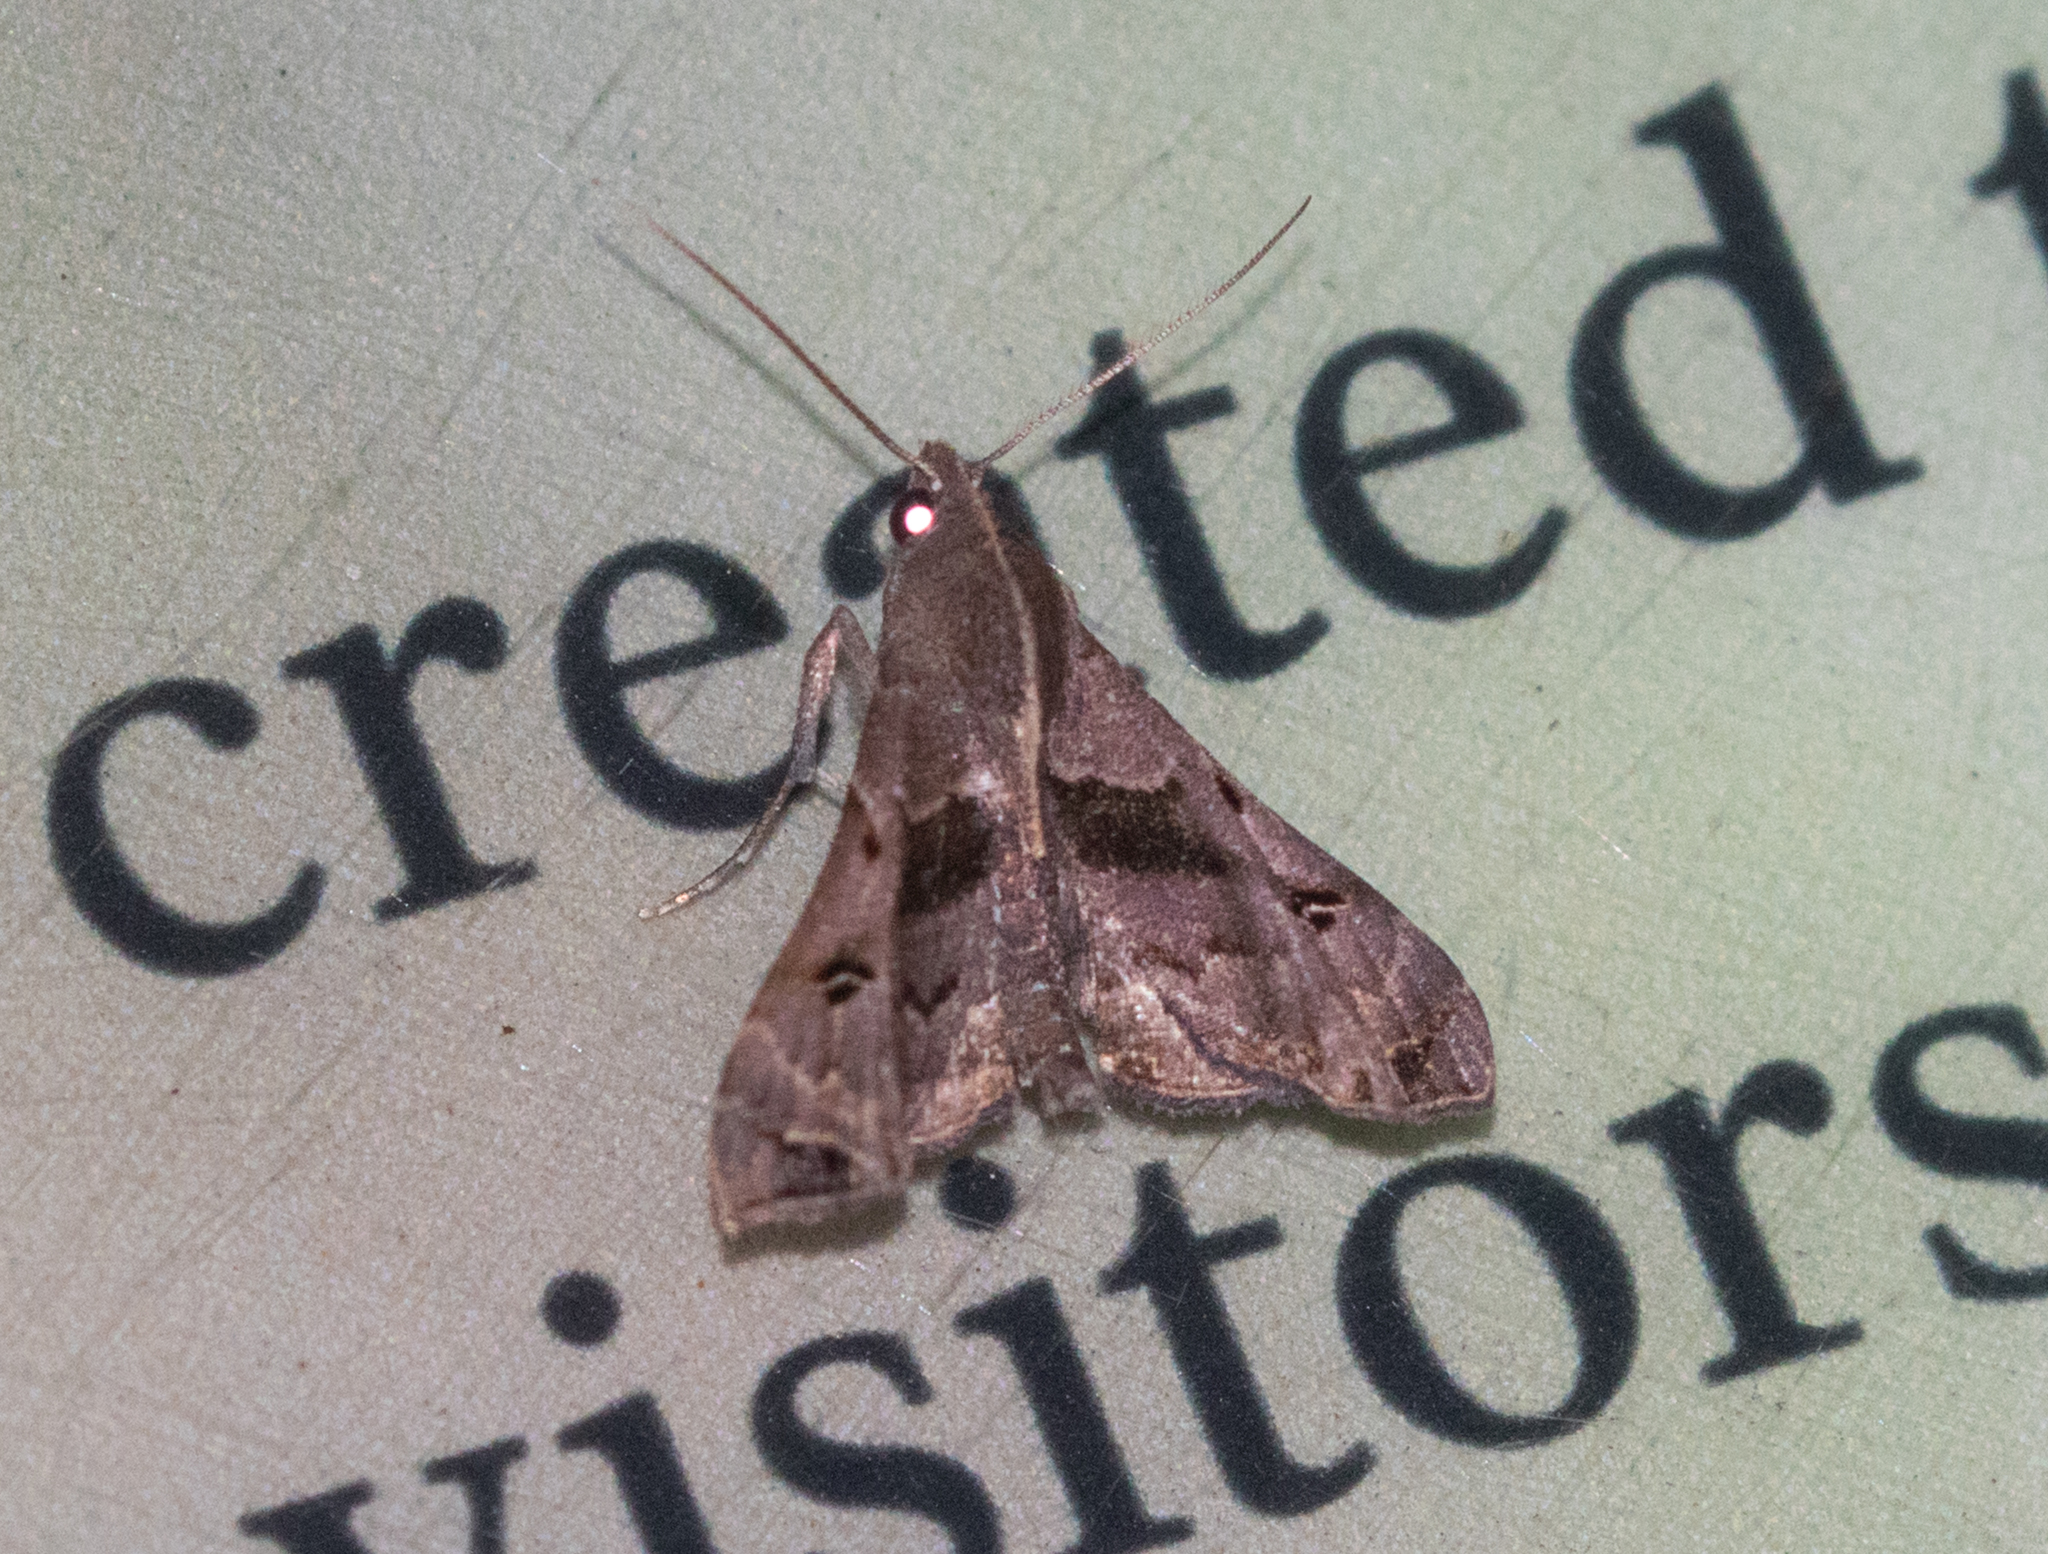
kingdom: Animalia
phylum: Arthropoda
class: Insecta
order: Lepidoptera
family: Erebidae
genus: Palthis
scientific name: Palthis asopialis
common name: Faint-spotted palthis moth
